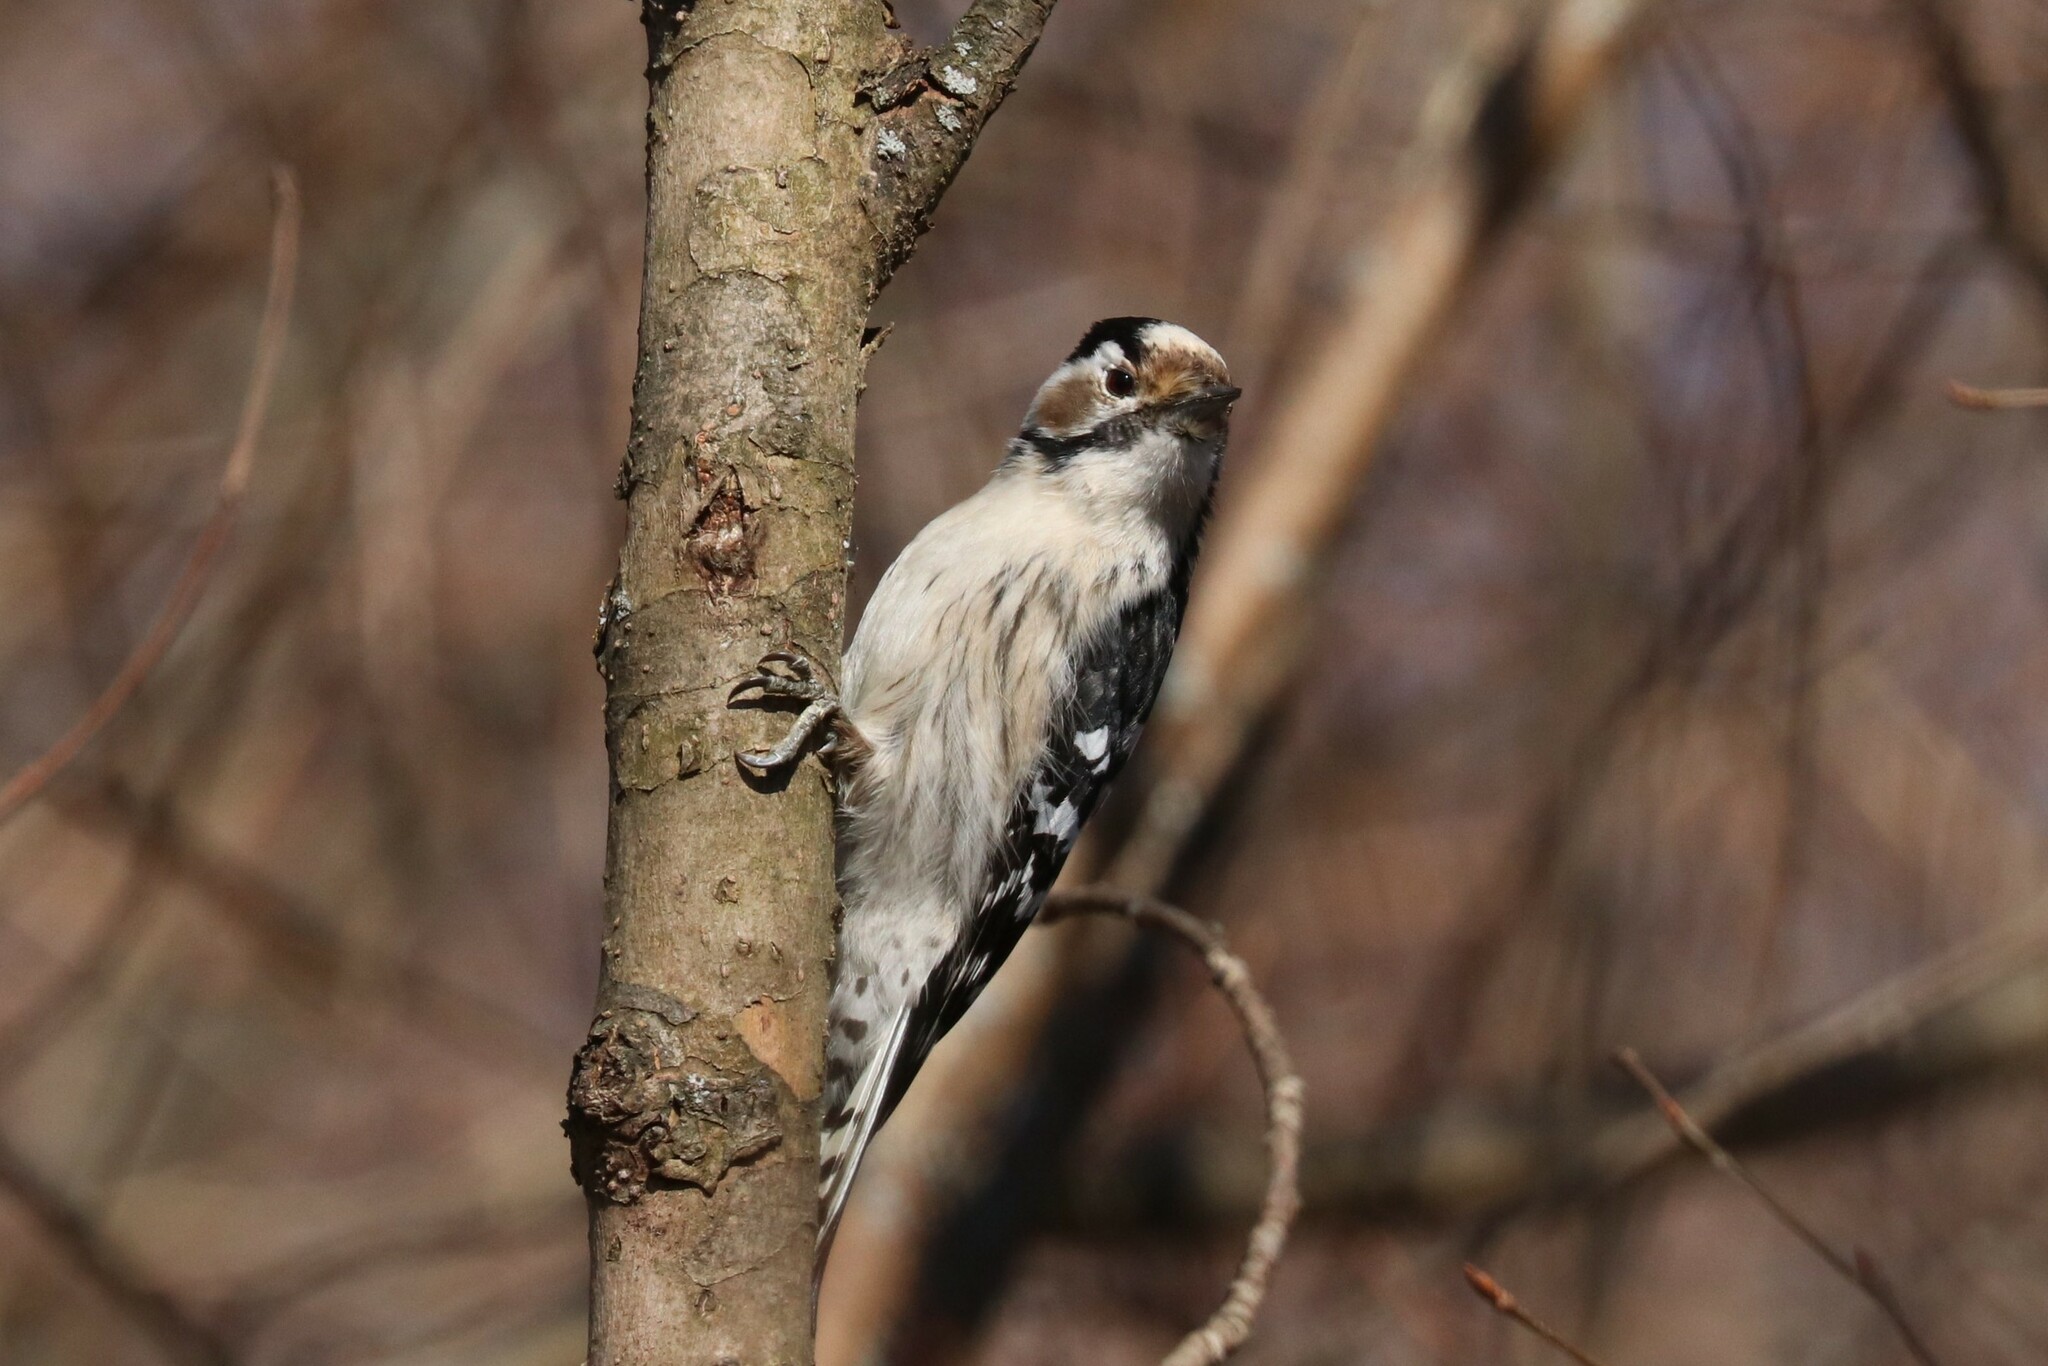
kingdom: Animalia
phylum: Chordata
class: Aves
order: Piciformes
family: Picidae
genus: Dryobates
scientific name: Dryobates minor
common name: Lesser spotted woodpecker
